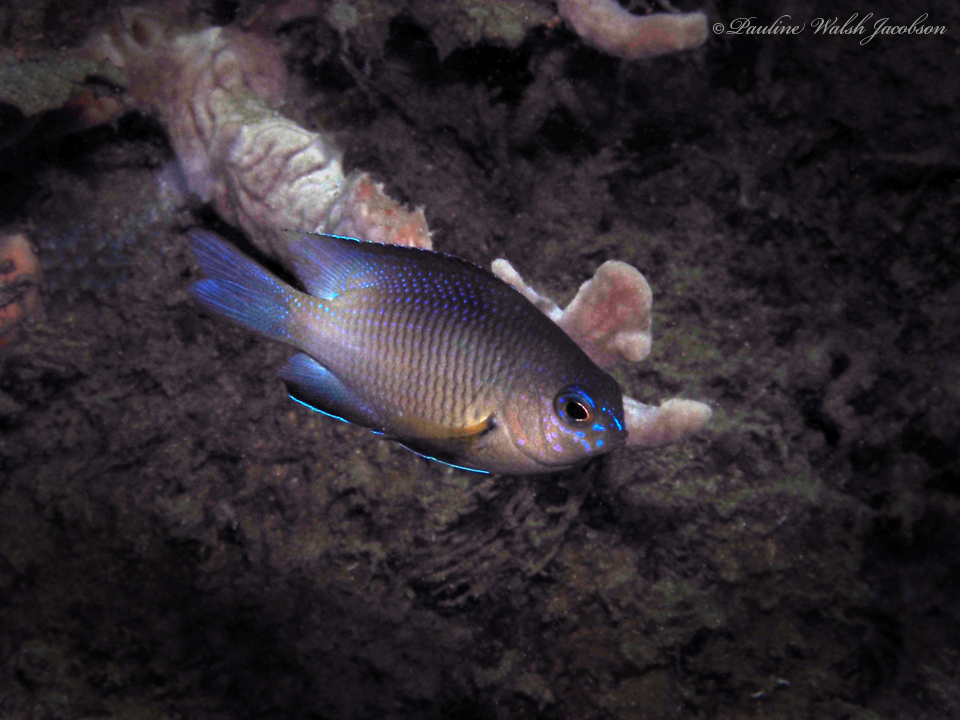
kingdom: Animalia
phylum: Chordata
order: Perciformes
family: Pomacentridae
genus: Stegastes
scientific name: Stegastes partitus
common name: Bicolor damselfish
